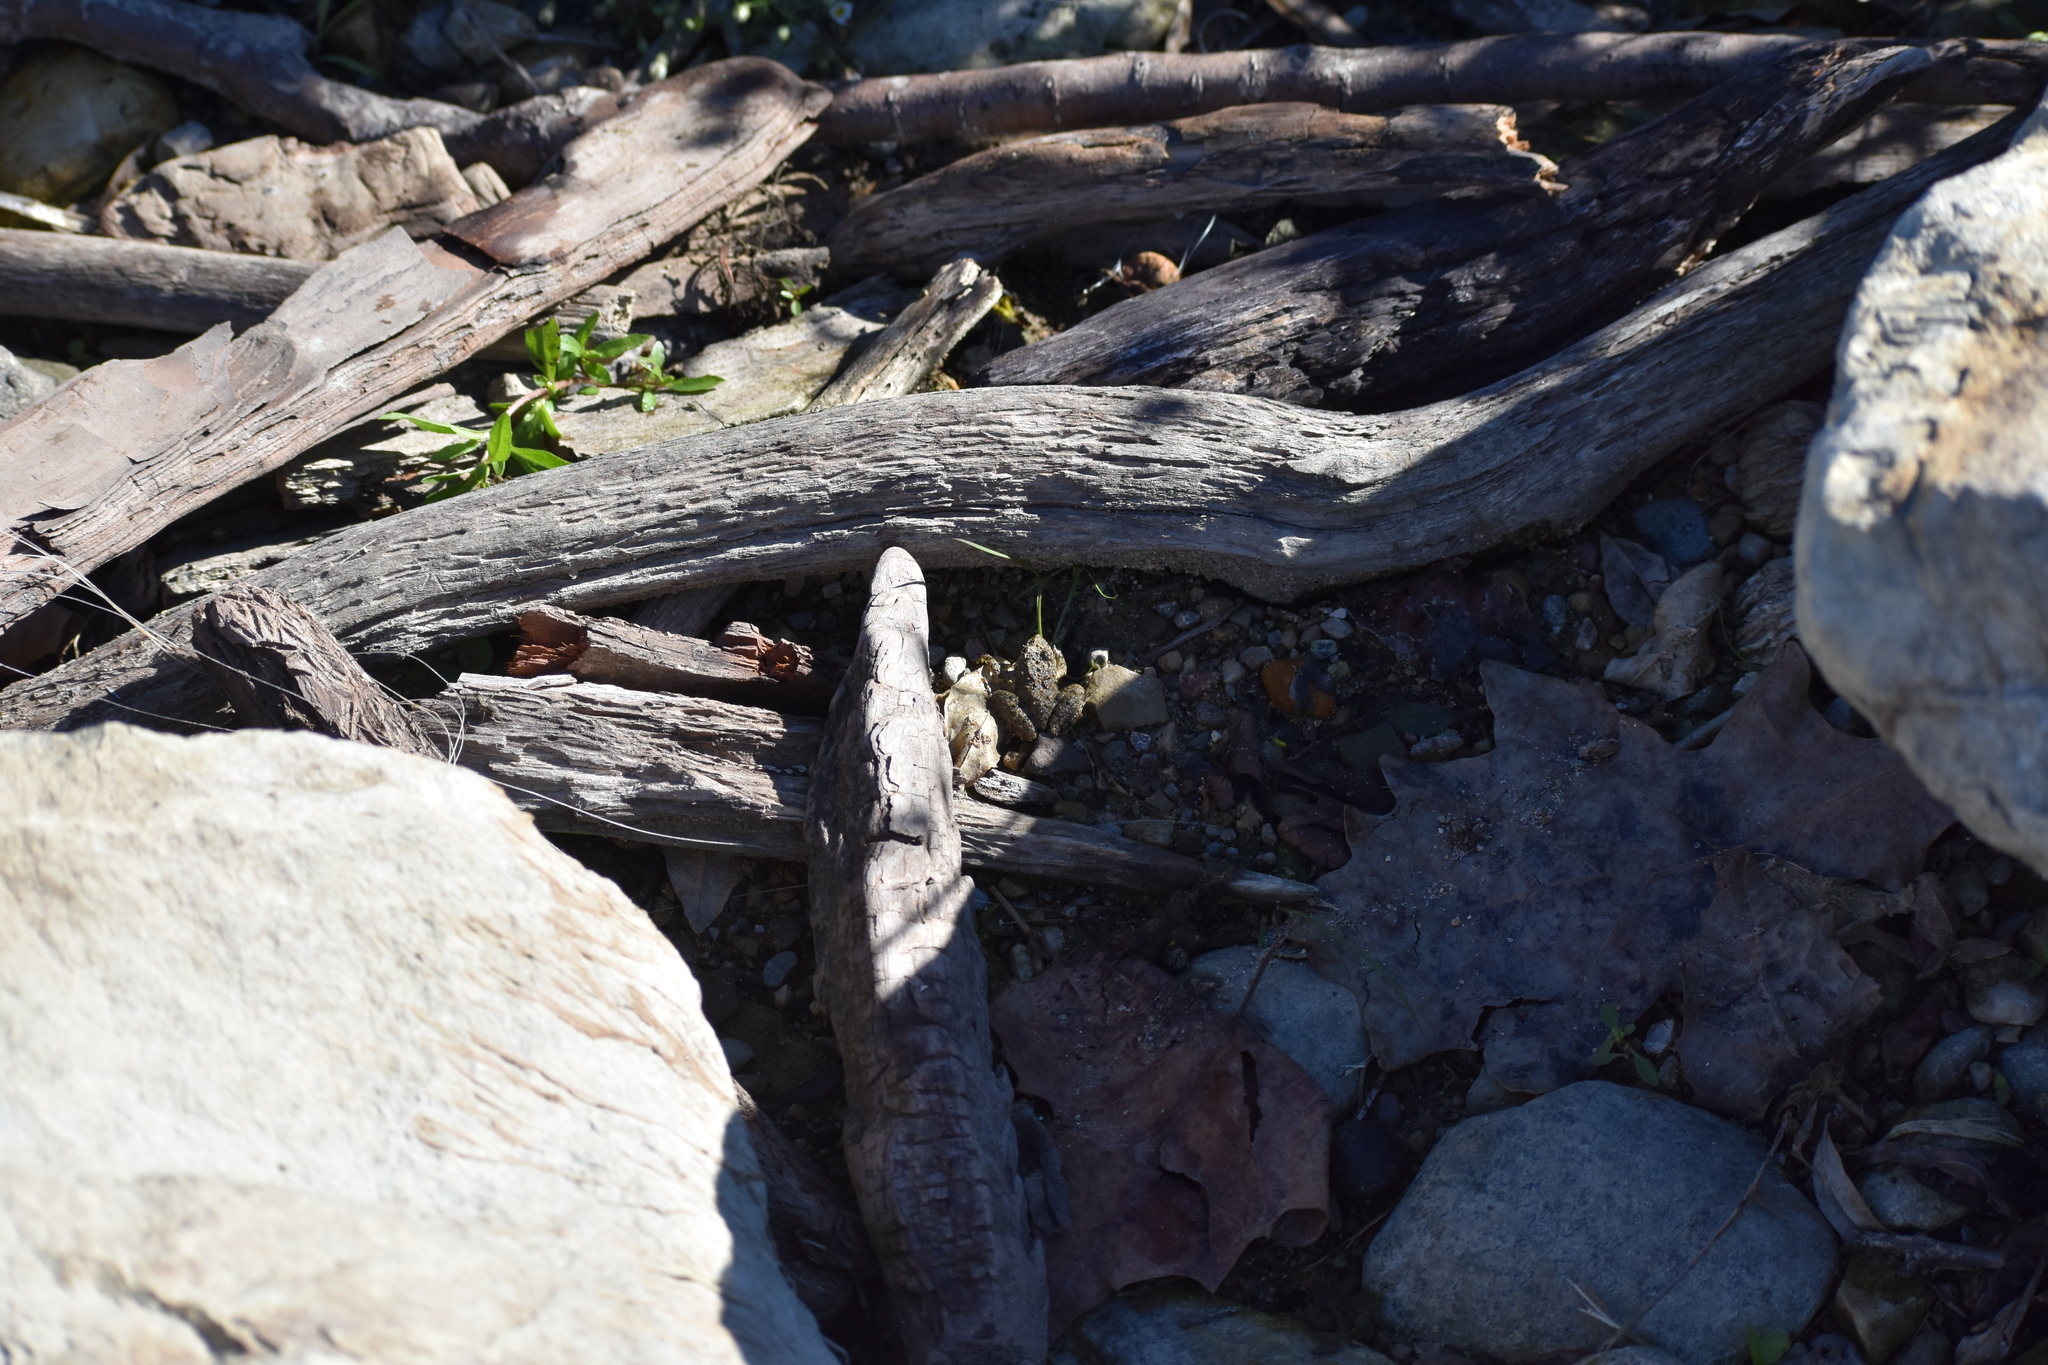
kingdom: Animalia
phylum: Chordata
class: Amphibia
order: Anura
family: Hylidae
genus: Acris
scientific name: Acris blanchardi
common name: Blanchard's cricket frog
